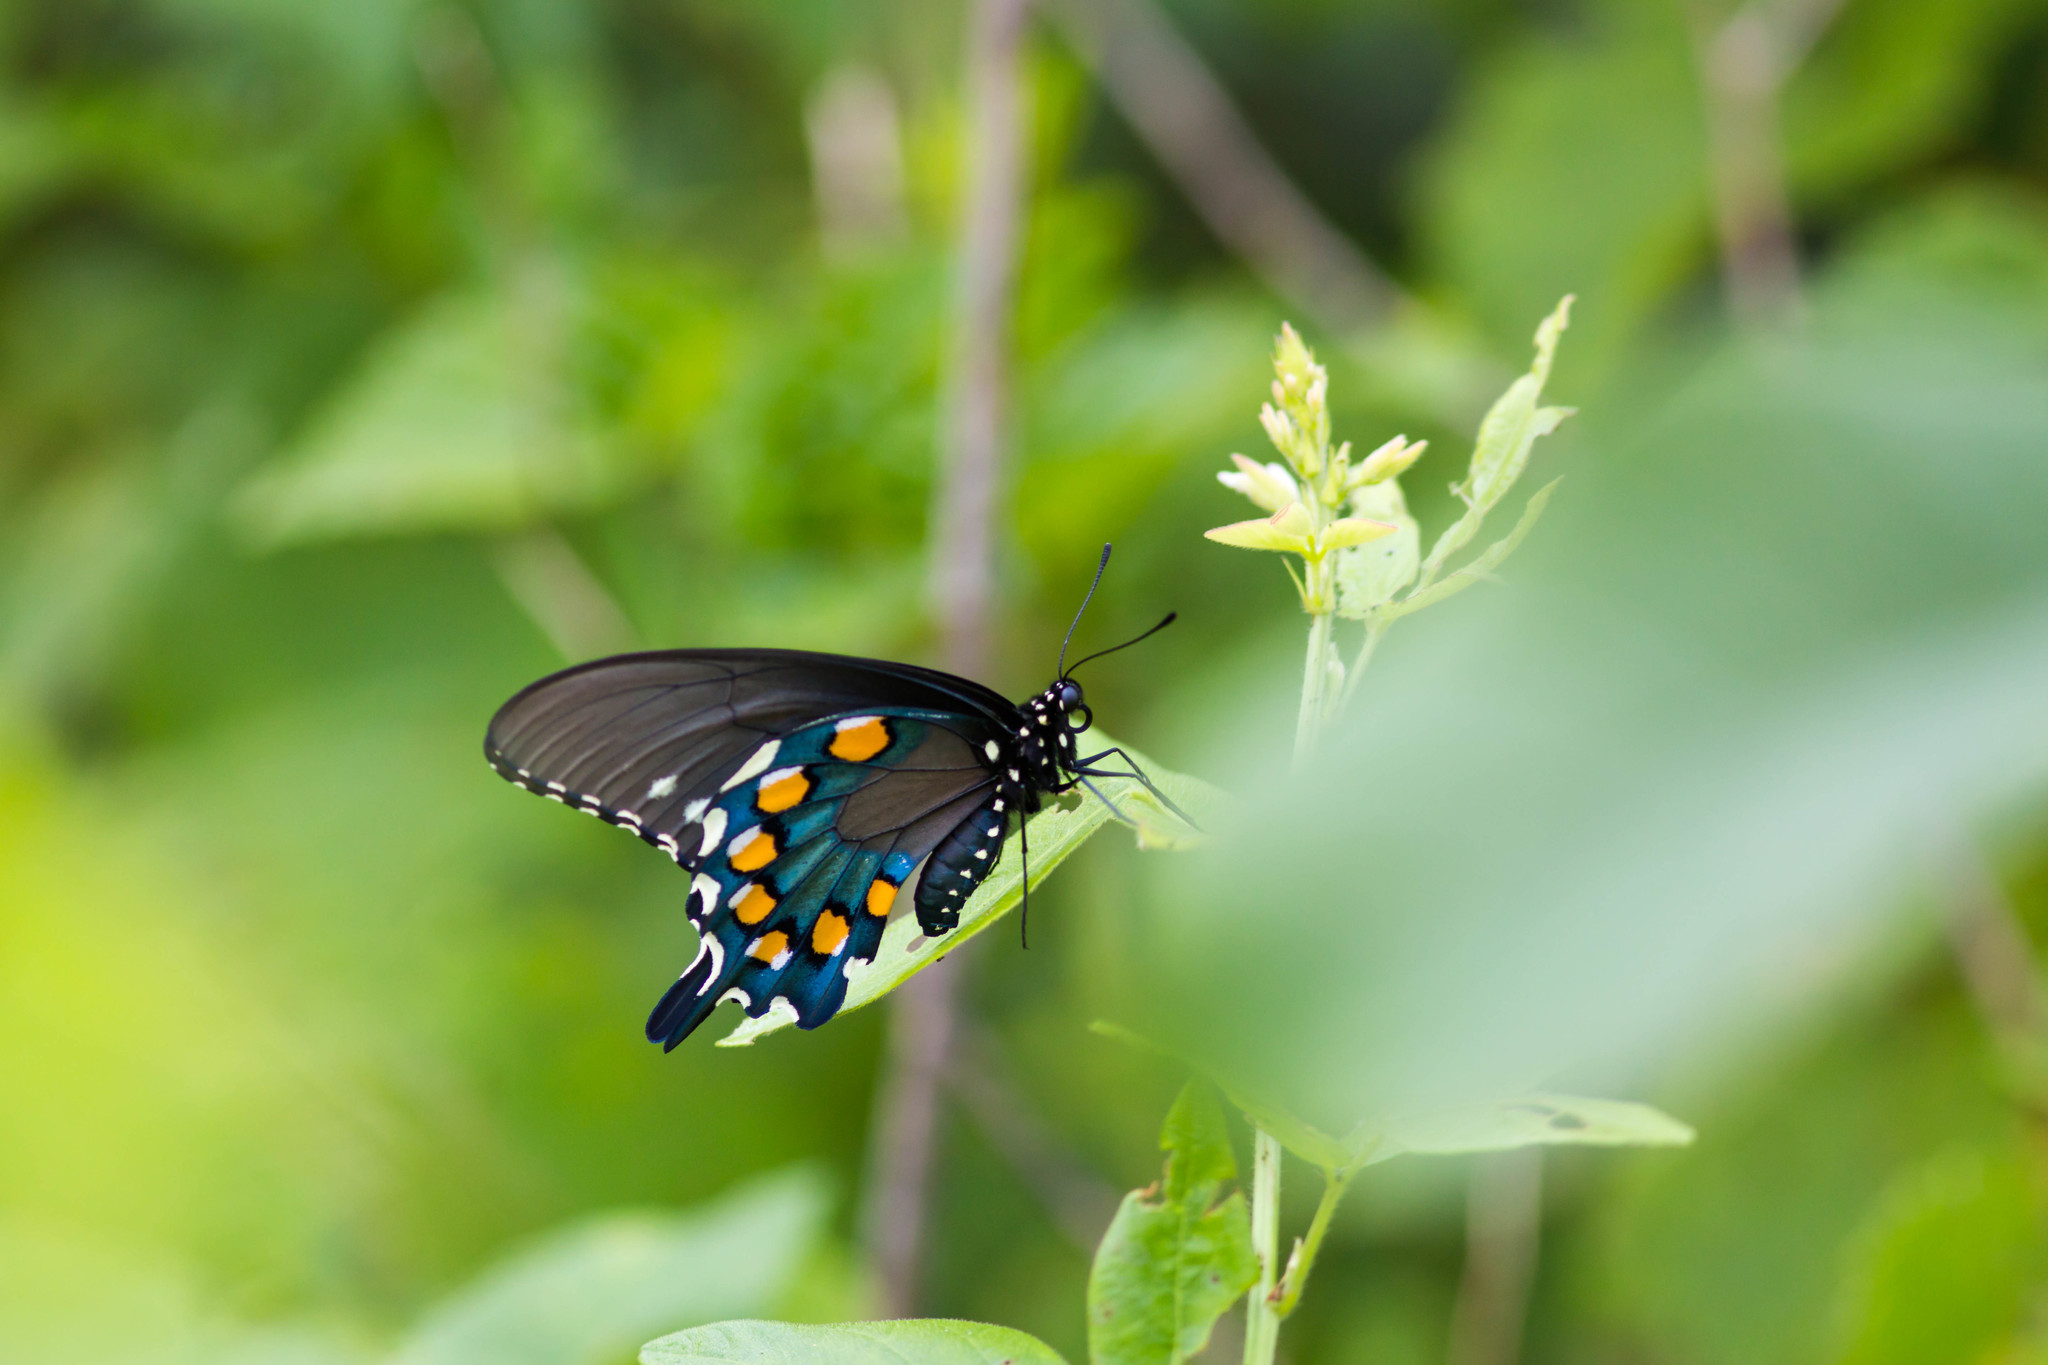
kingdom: Animalia
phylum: Arthropoda
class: Insecta
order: Lepidoptera
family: Papilionidae
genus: Battus
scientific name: Battus philenor
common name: Pipevine swallowtail
